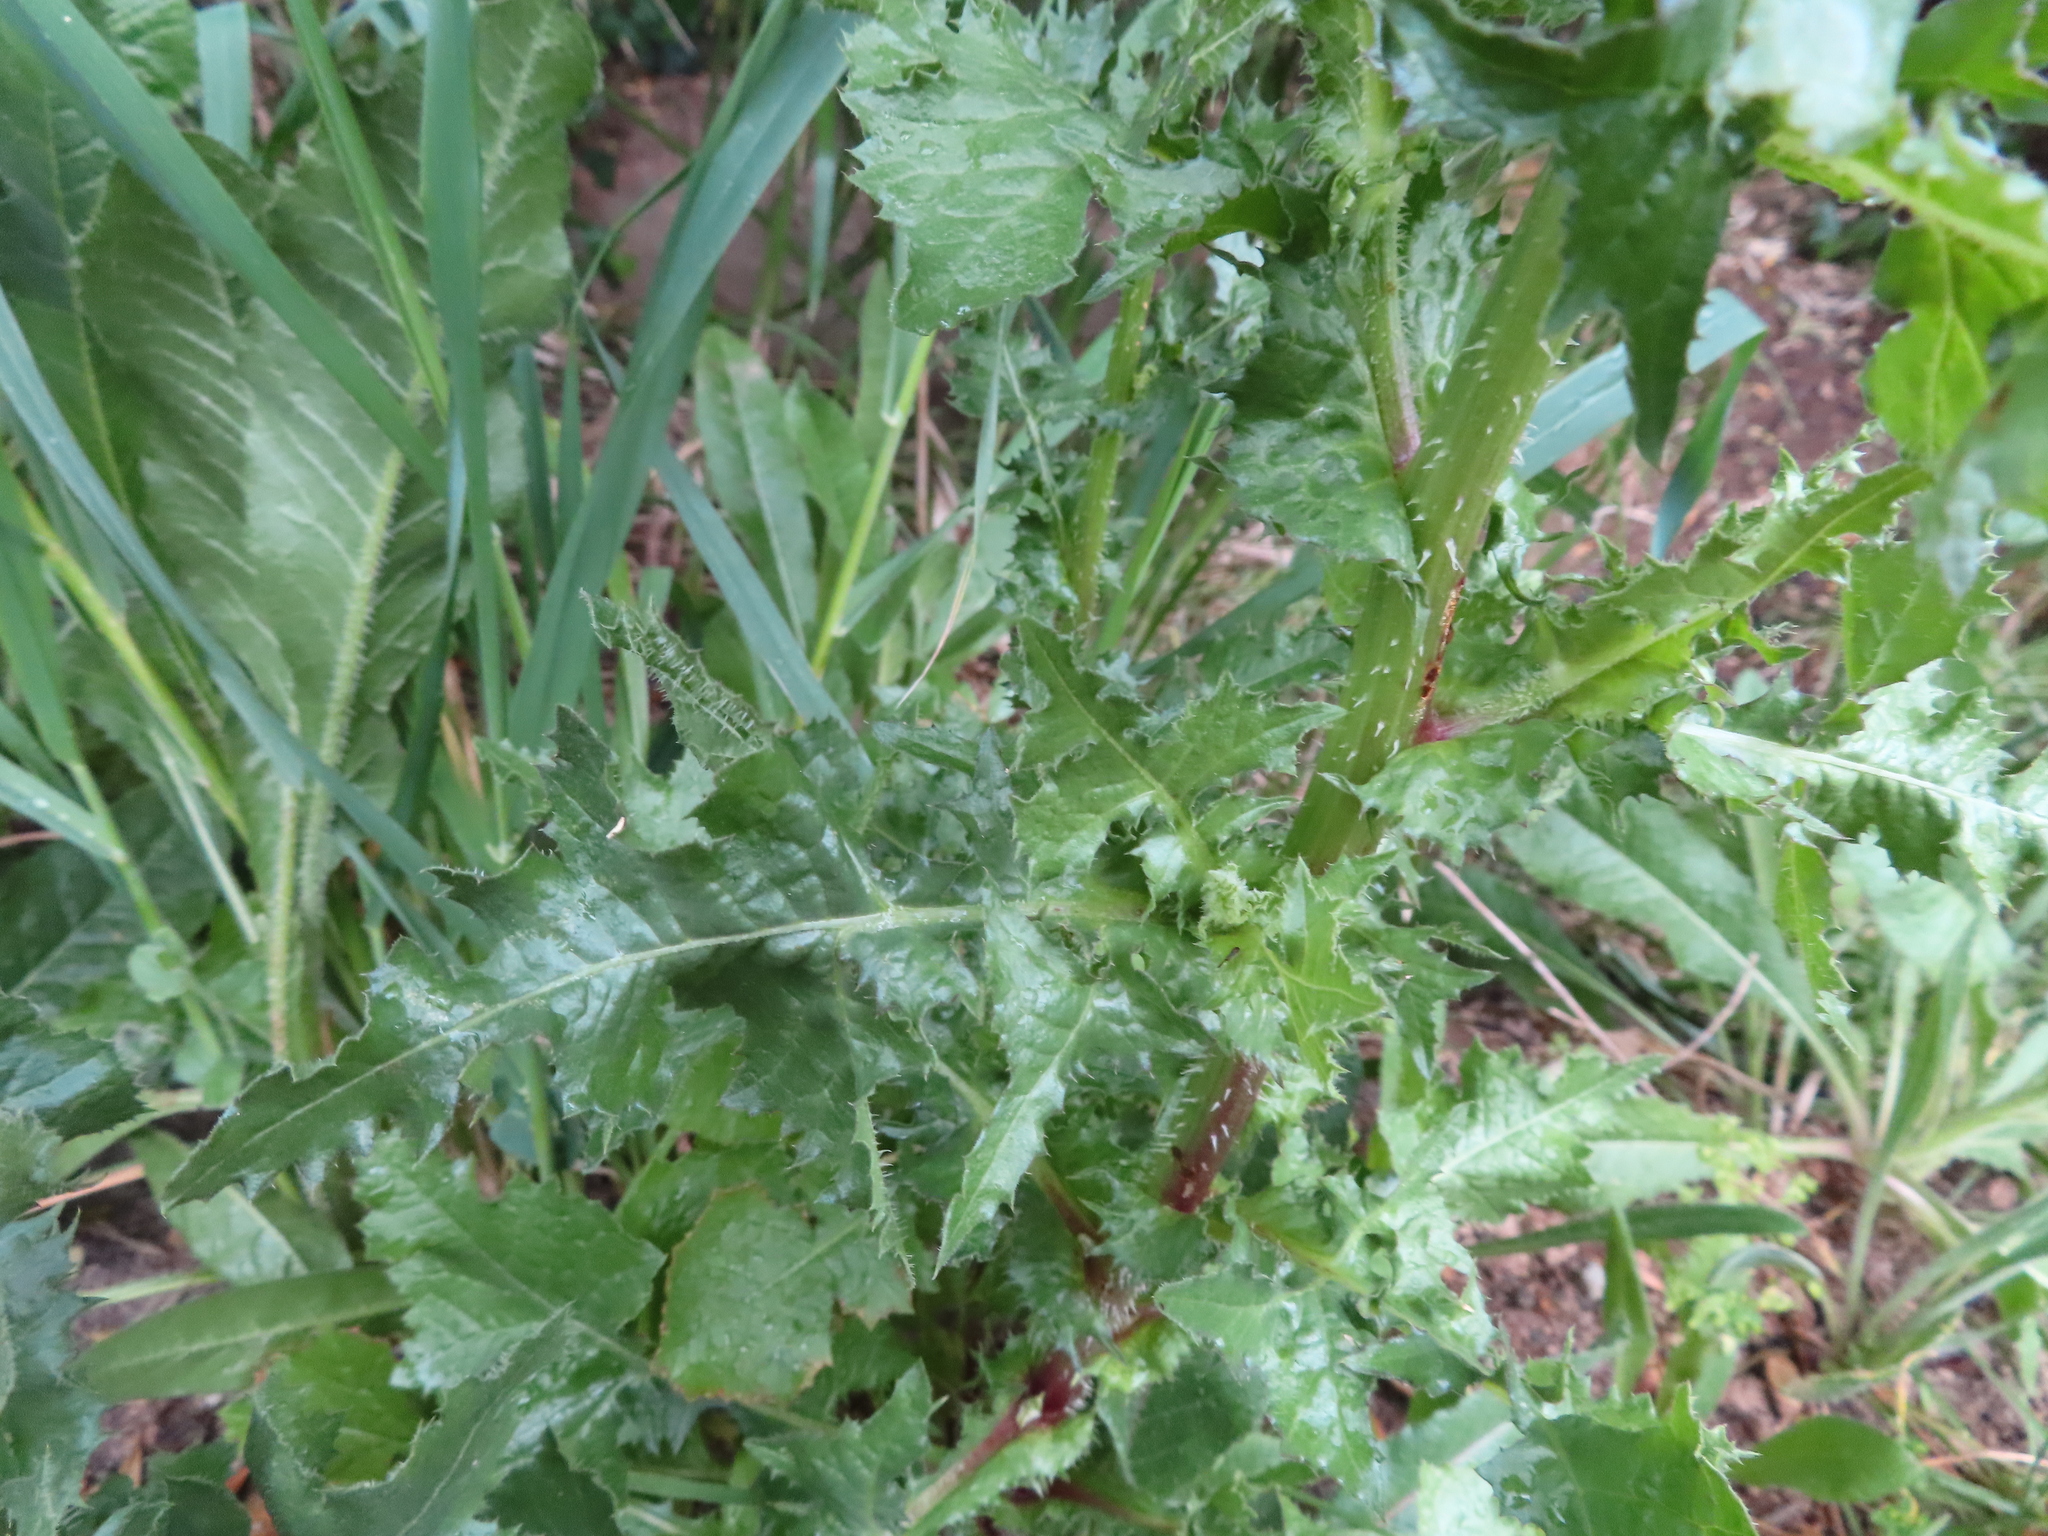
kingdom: Plantae
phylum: Tracheophyta
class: Magnoliopsida
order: Asterales
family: Asteraceae
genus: Urospermum
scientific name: Urospermum picroides
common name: False hawkbit
